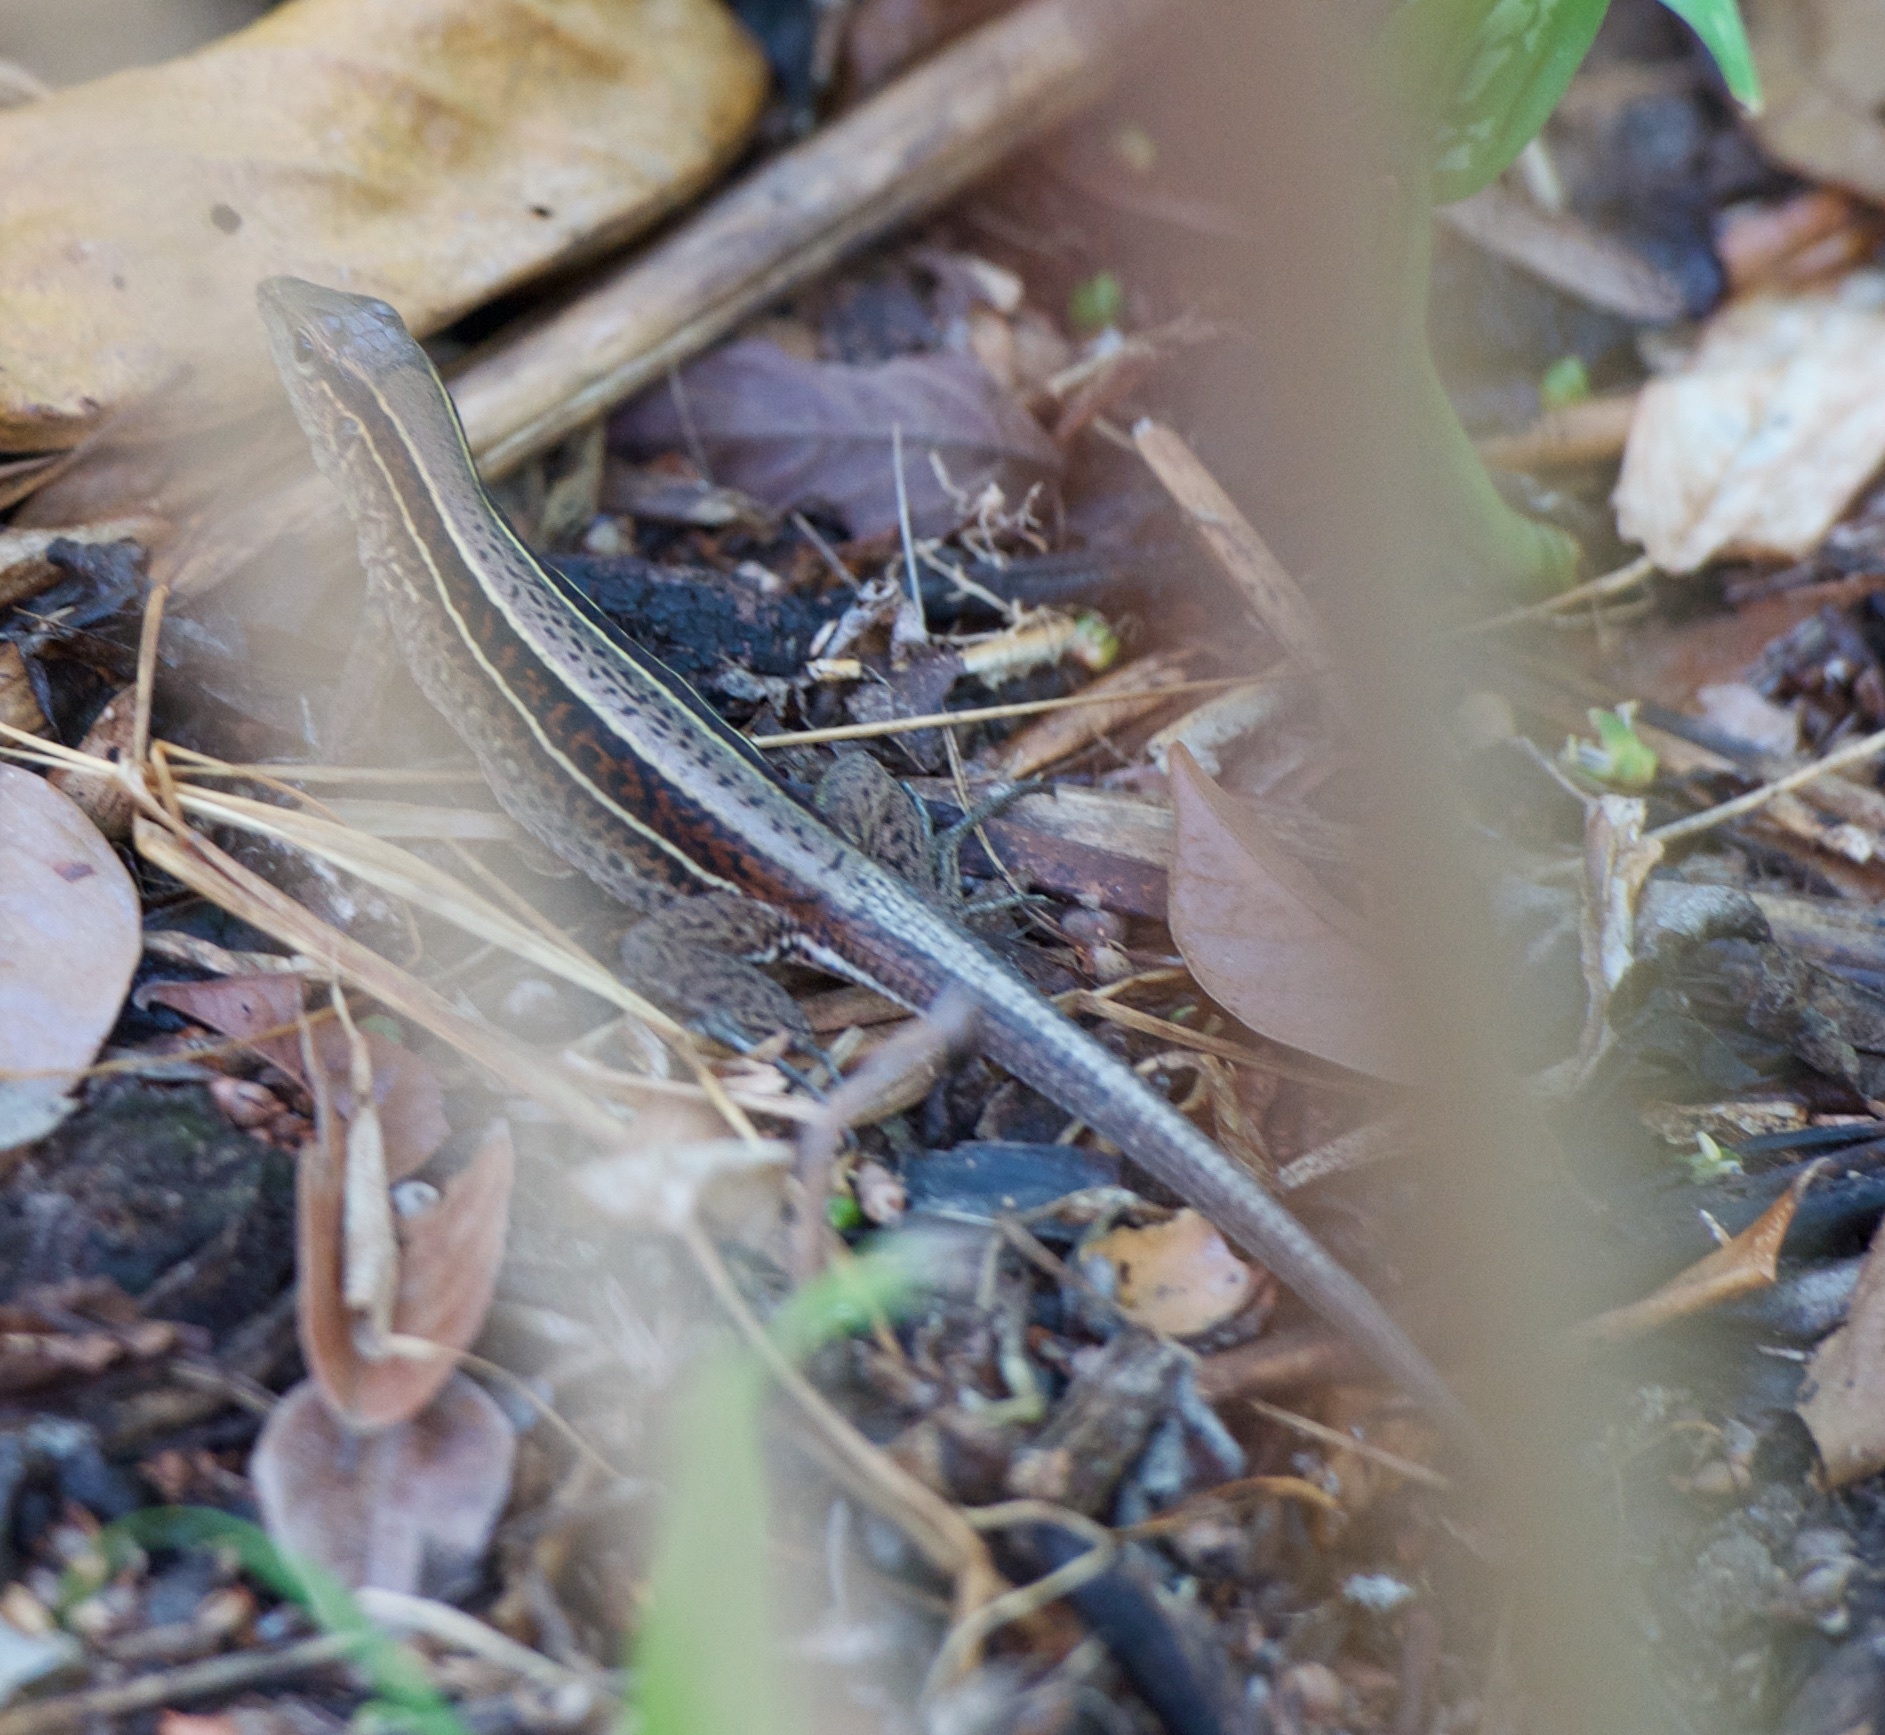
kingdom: Animalia
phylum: Chordata
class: Squamata
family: Teiidae
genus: Holcosus
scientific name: Holcosus quadrilineatus
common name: Four-lined ameiva
